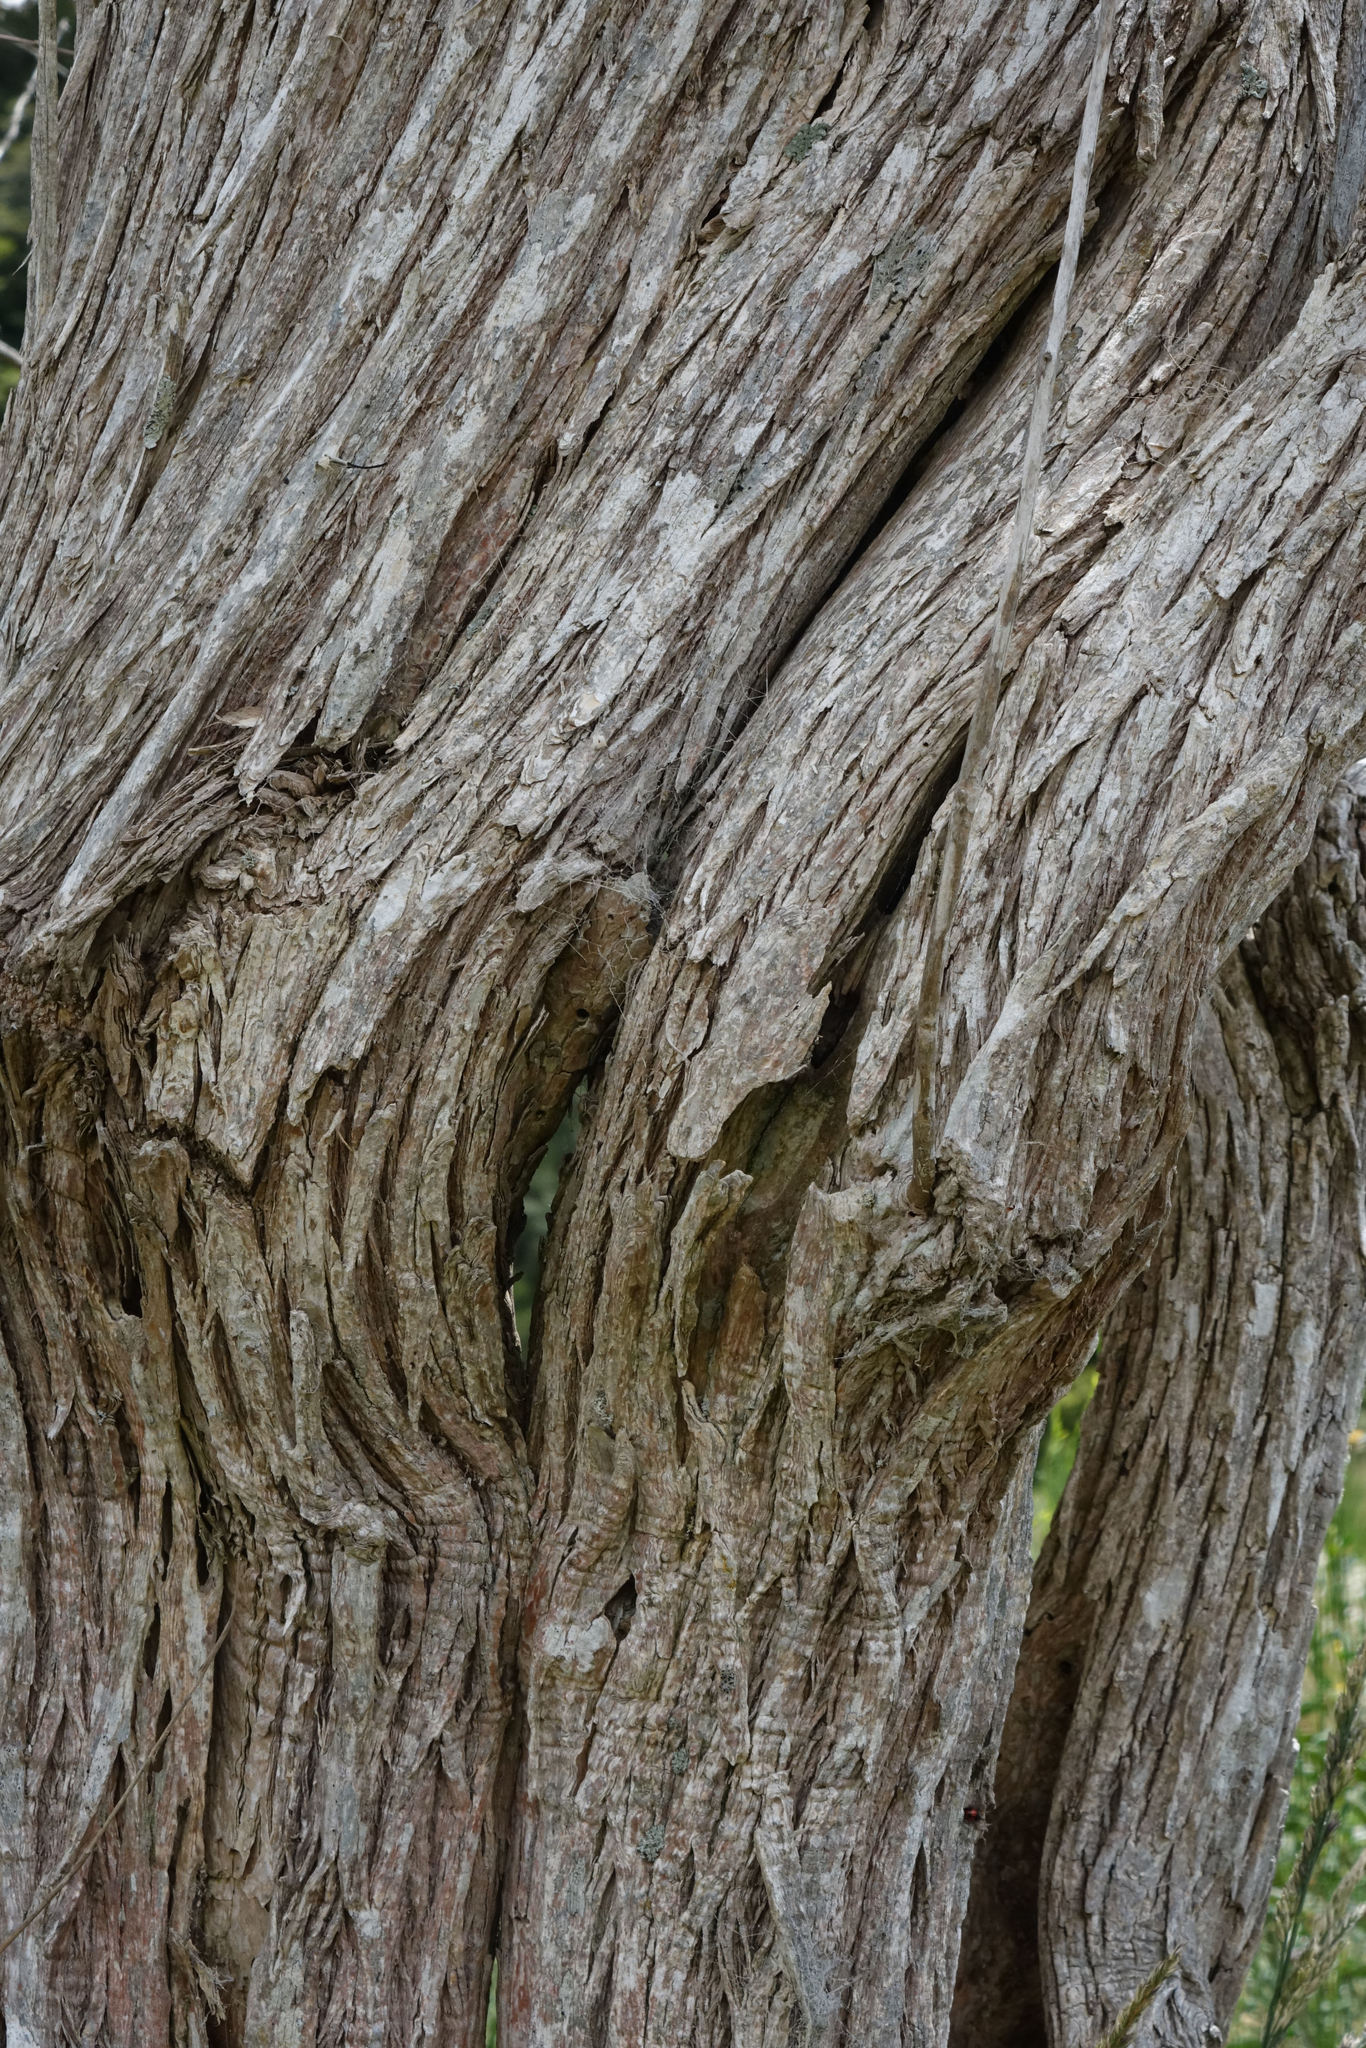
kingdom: Plantae
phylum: Tracheophyta
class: Magnoliopsida
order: Asterales
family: Asteraceae
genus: Olearia
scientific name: Olearia hectorii
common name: Deciduous tree daisy
